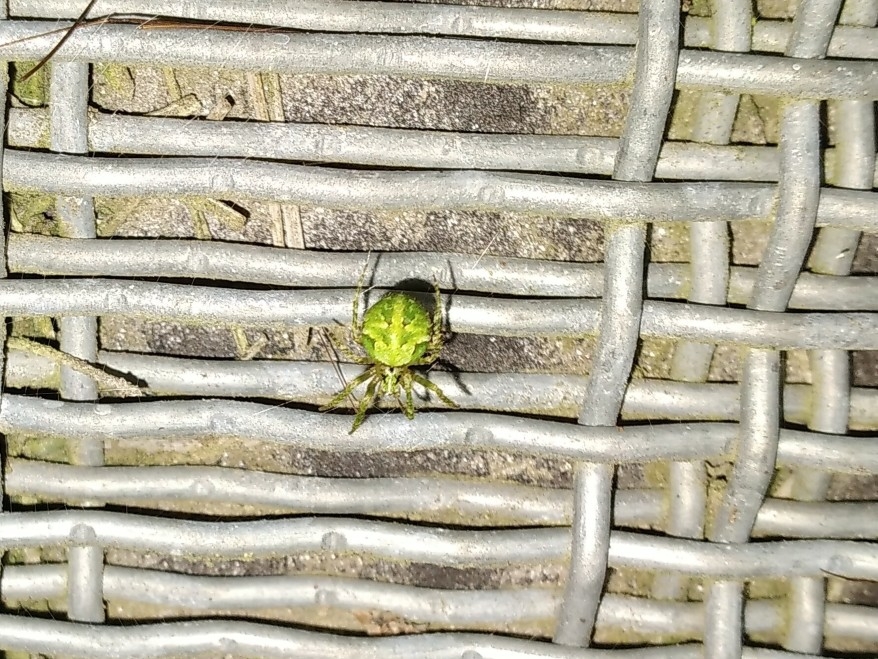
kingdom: Animalia
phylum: Arthropoda
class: Arachnida
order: Araneae
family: Araneidae
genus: Cryptaranea
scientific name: Cryptaranea atrihastula
